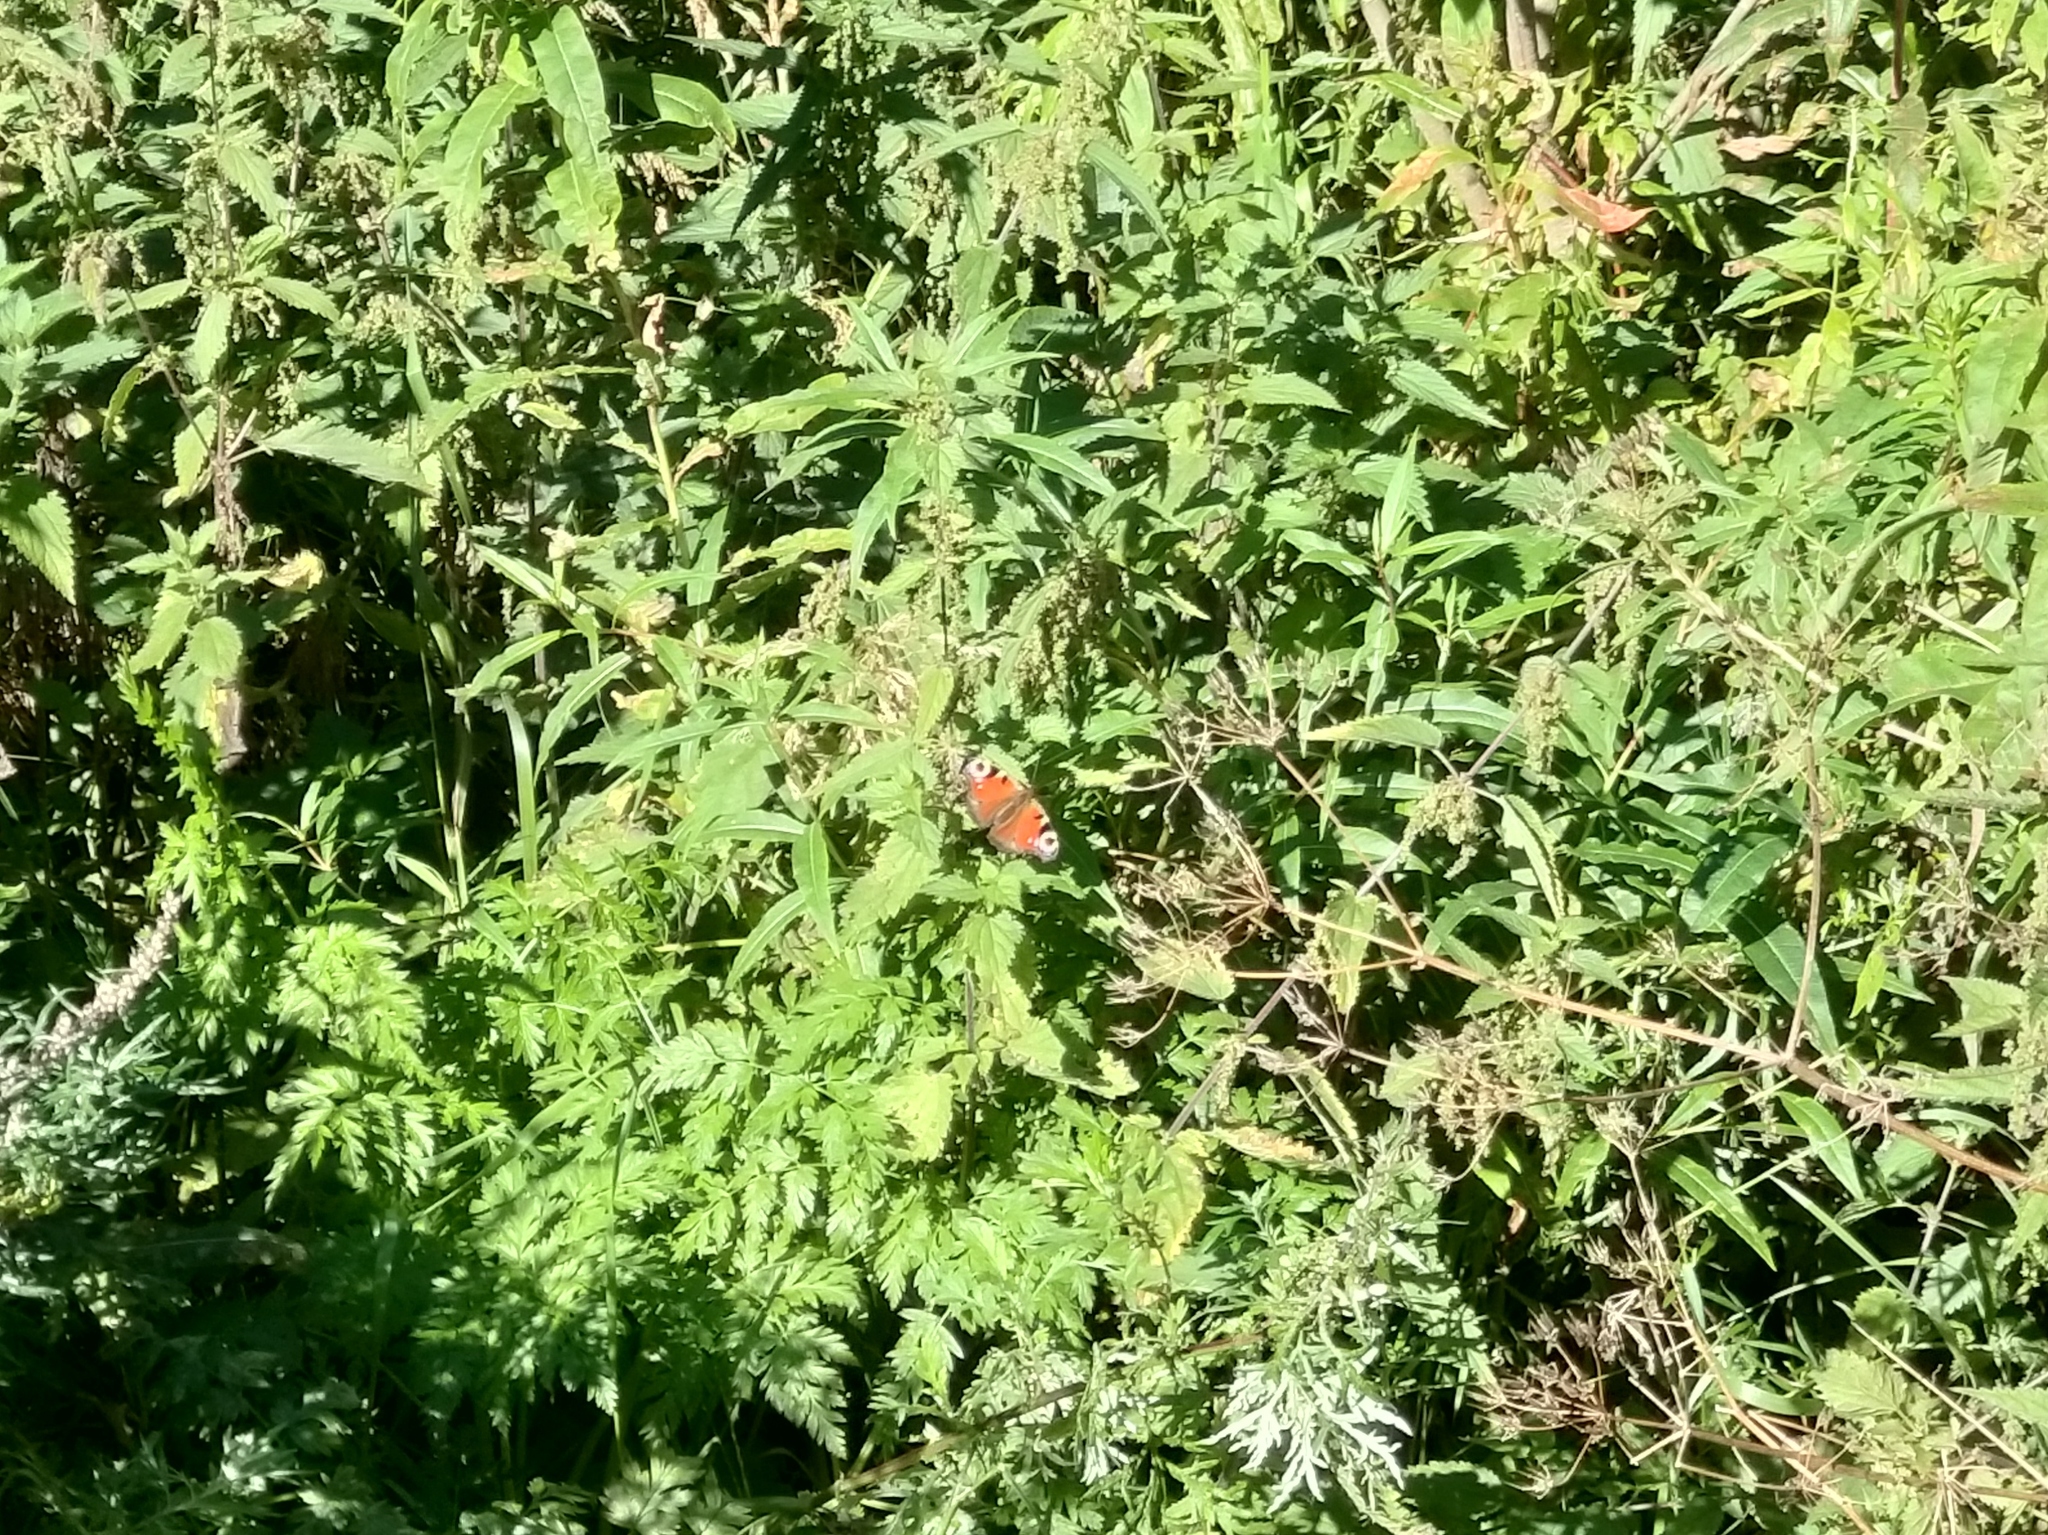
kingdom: Animalia
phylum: Arthropoda
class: Insecta
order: Lepidoptera
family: Nymphalidae
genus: Aglais
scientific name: Aglais io
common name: Peacock
